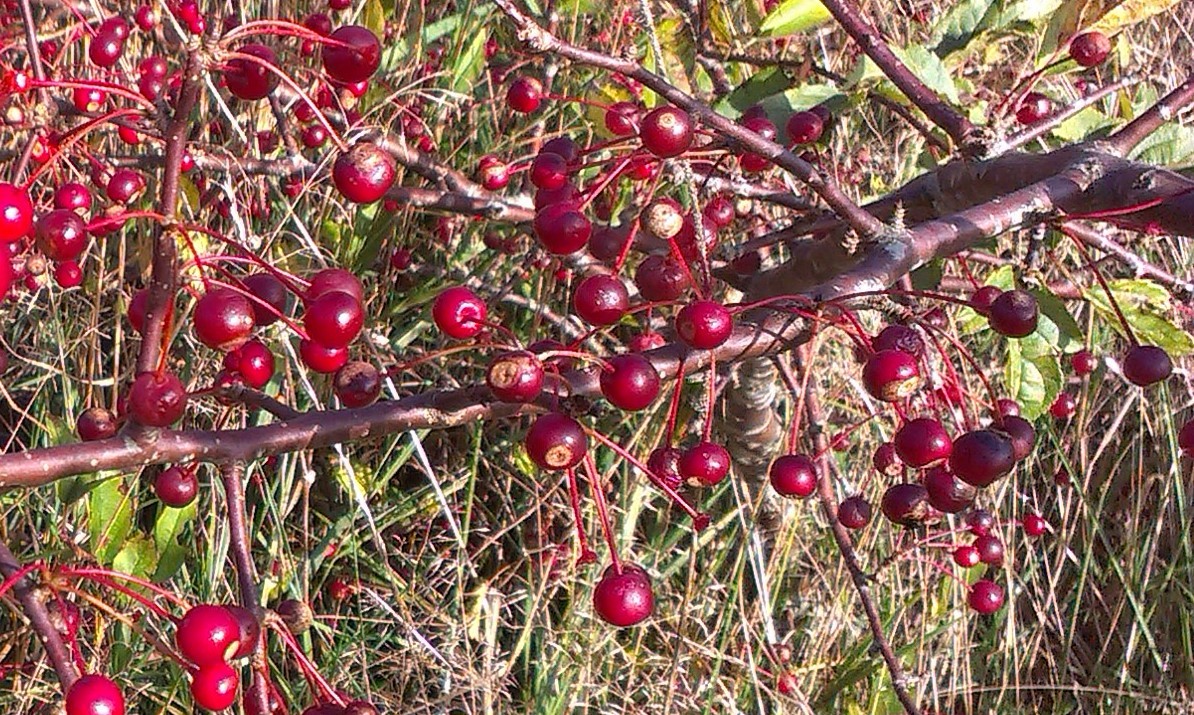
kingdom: Plantae
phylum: Tracheophyta
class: Magnoliopsida
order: Rosales
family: Rosaceae
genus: Malus
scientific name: Malus toringo
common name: Japanese crabapple
